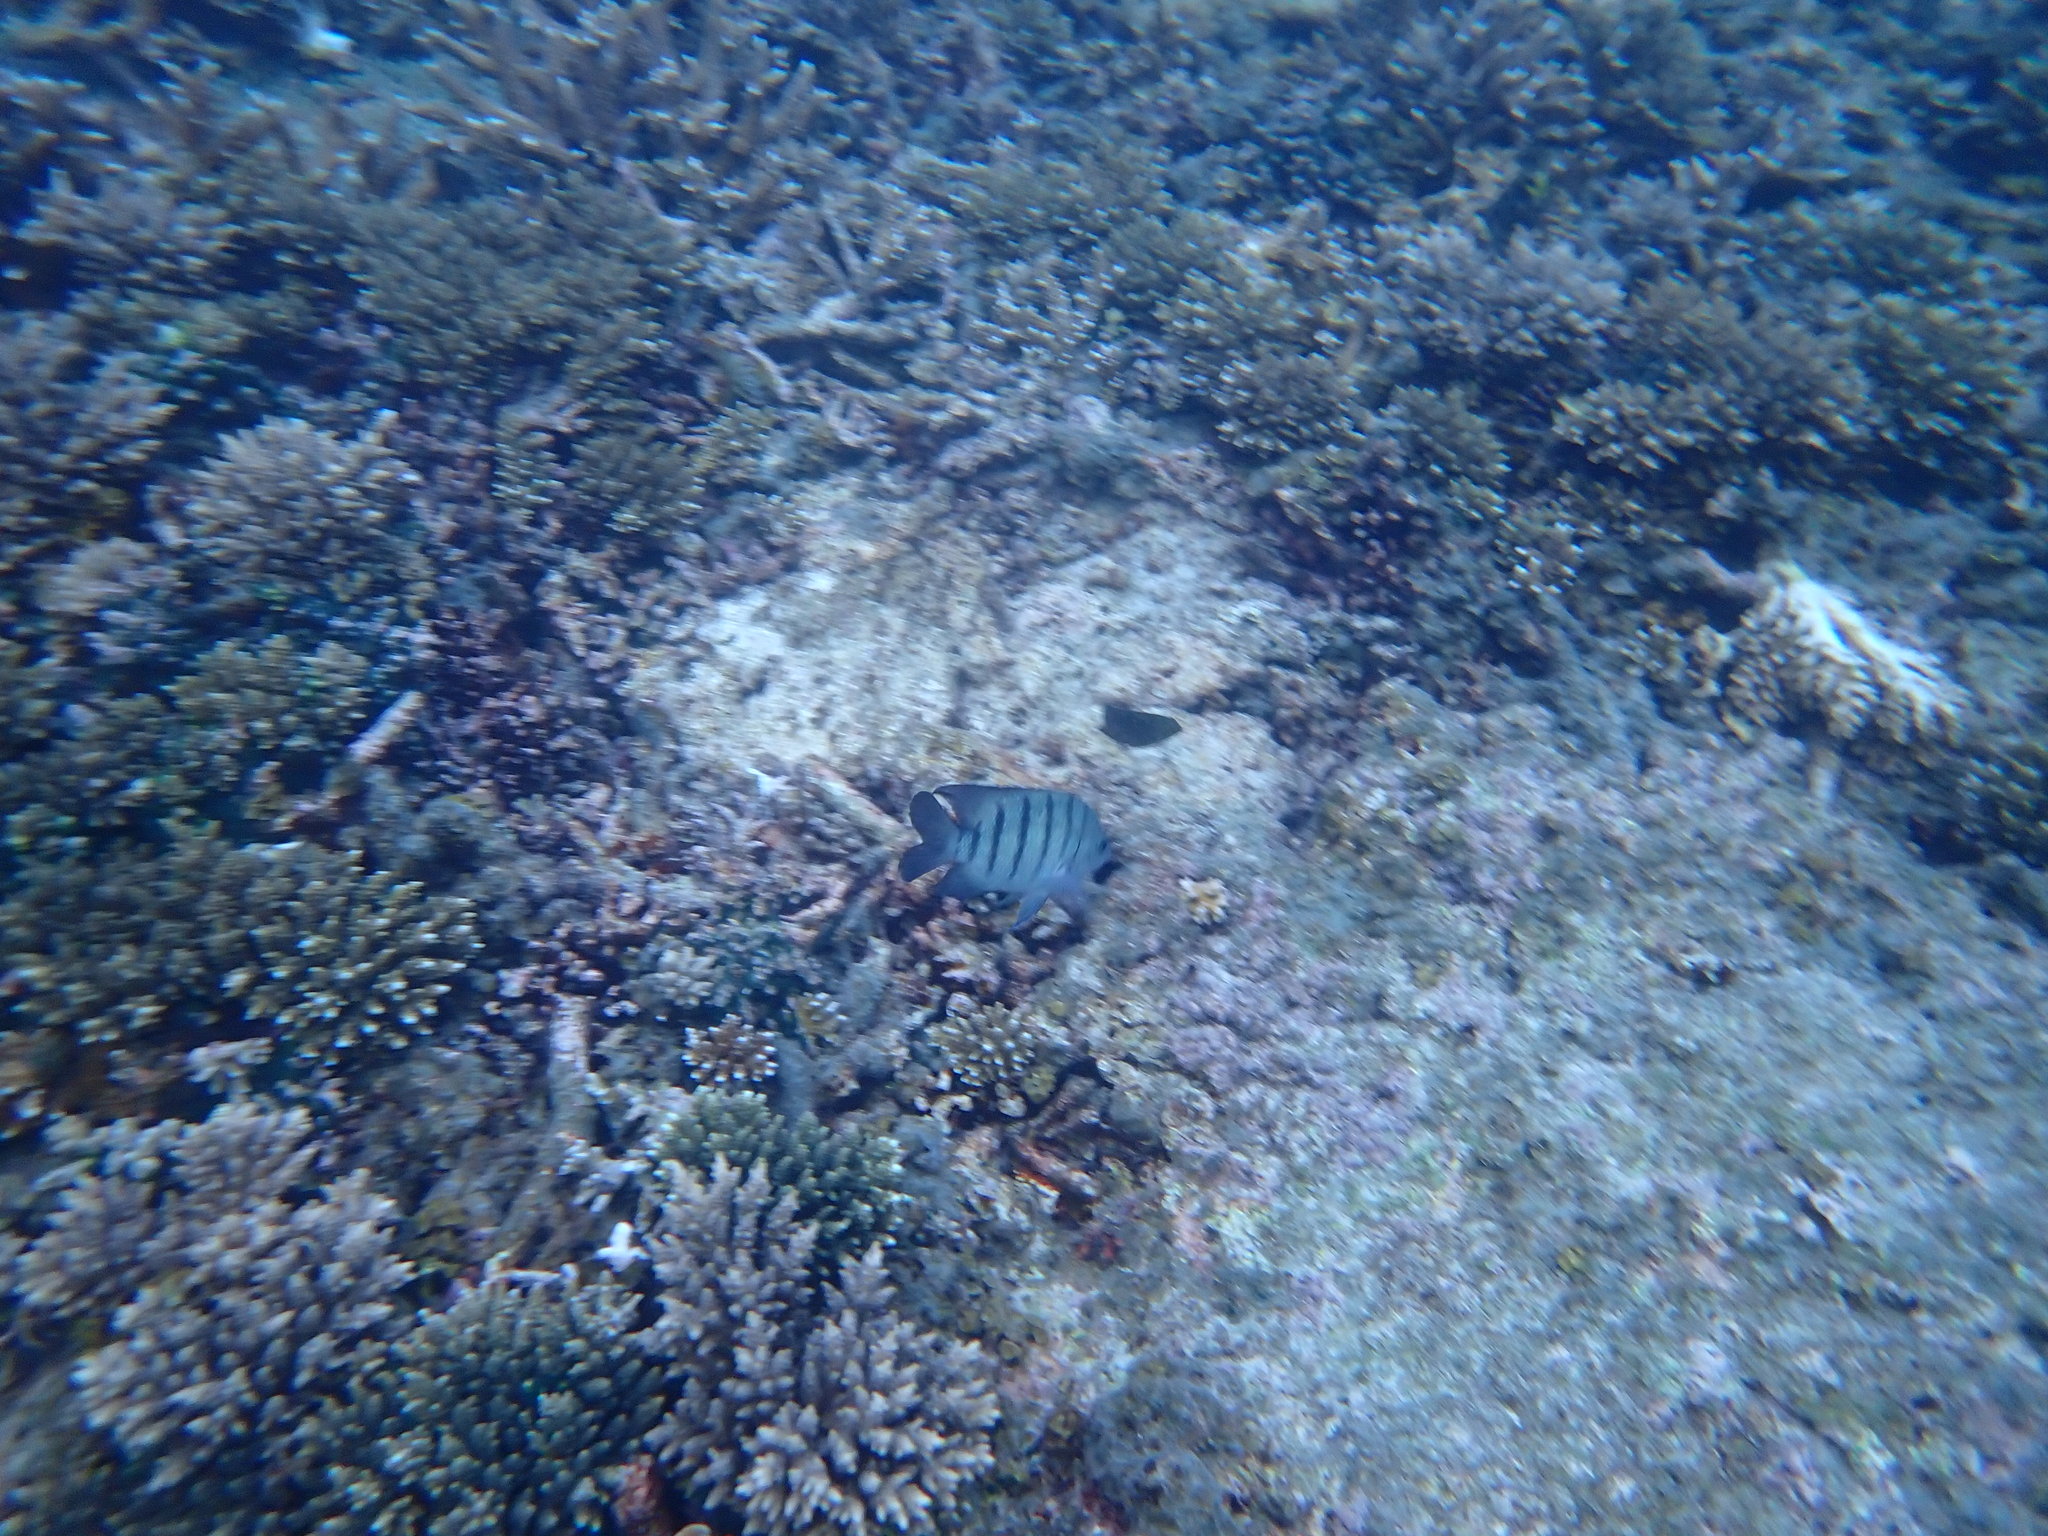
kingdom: Animalia
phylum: Chordata
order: Perciformes
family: Pomacentridae
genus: Abudefduf
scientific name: Abudefduf bengalensis
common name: Bengal sergeant
